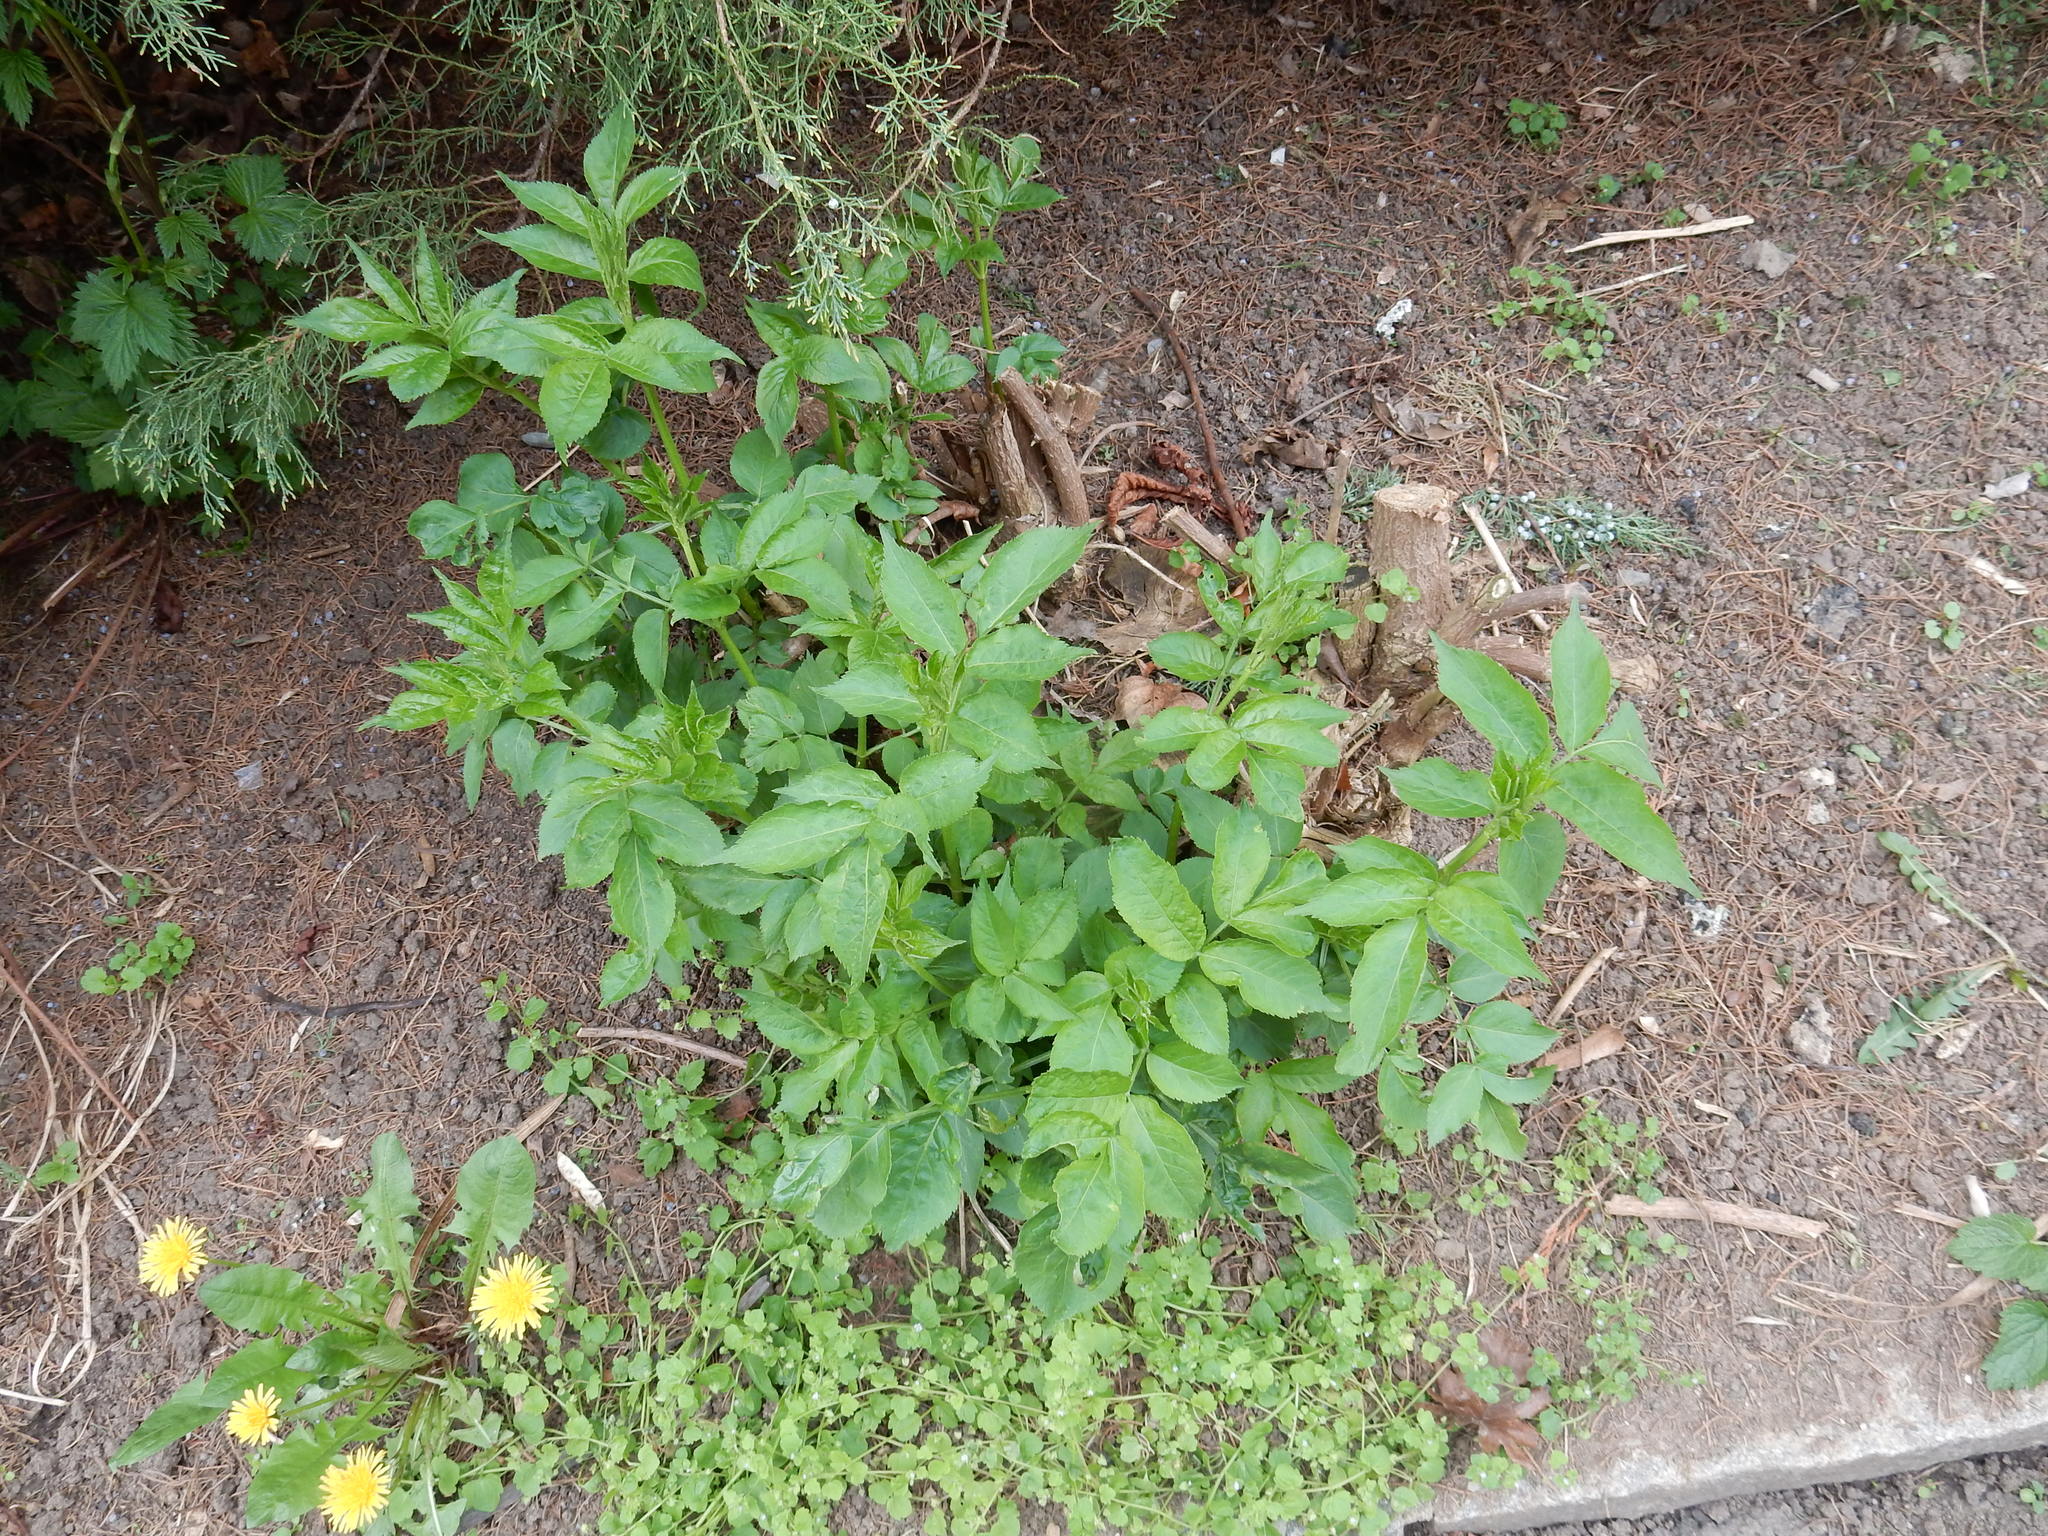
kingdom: Plantae
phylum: Tracheophyta
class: Magnoliopsida
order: Dipsacales
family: Viburnaceae
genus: Sambucus
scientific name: Sambucus nigra
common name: Elder
